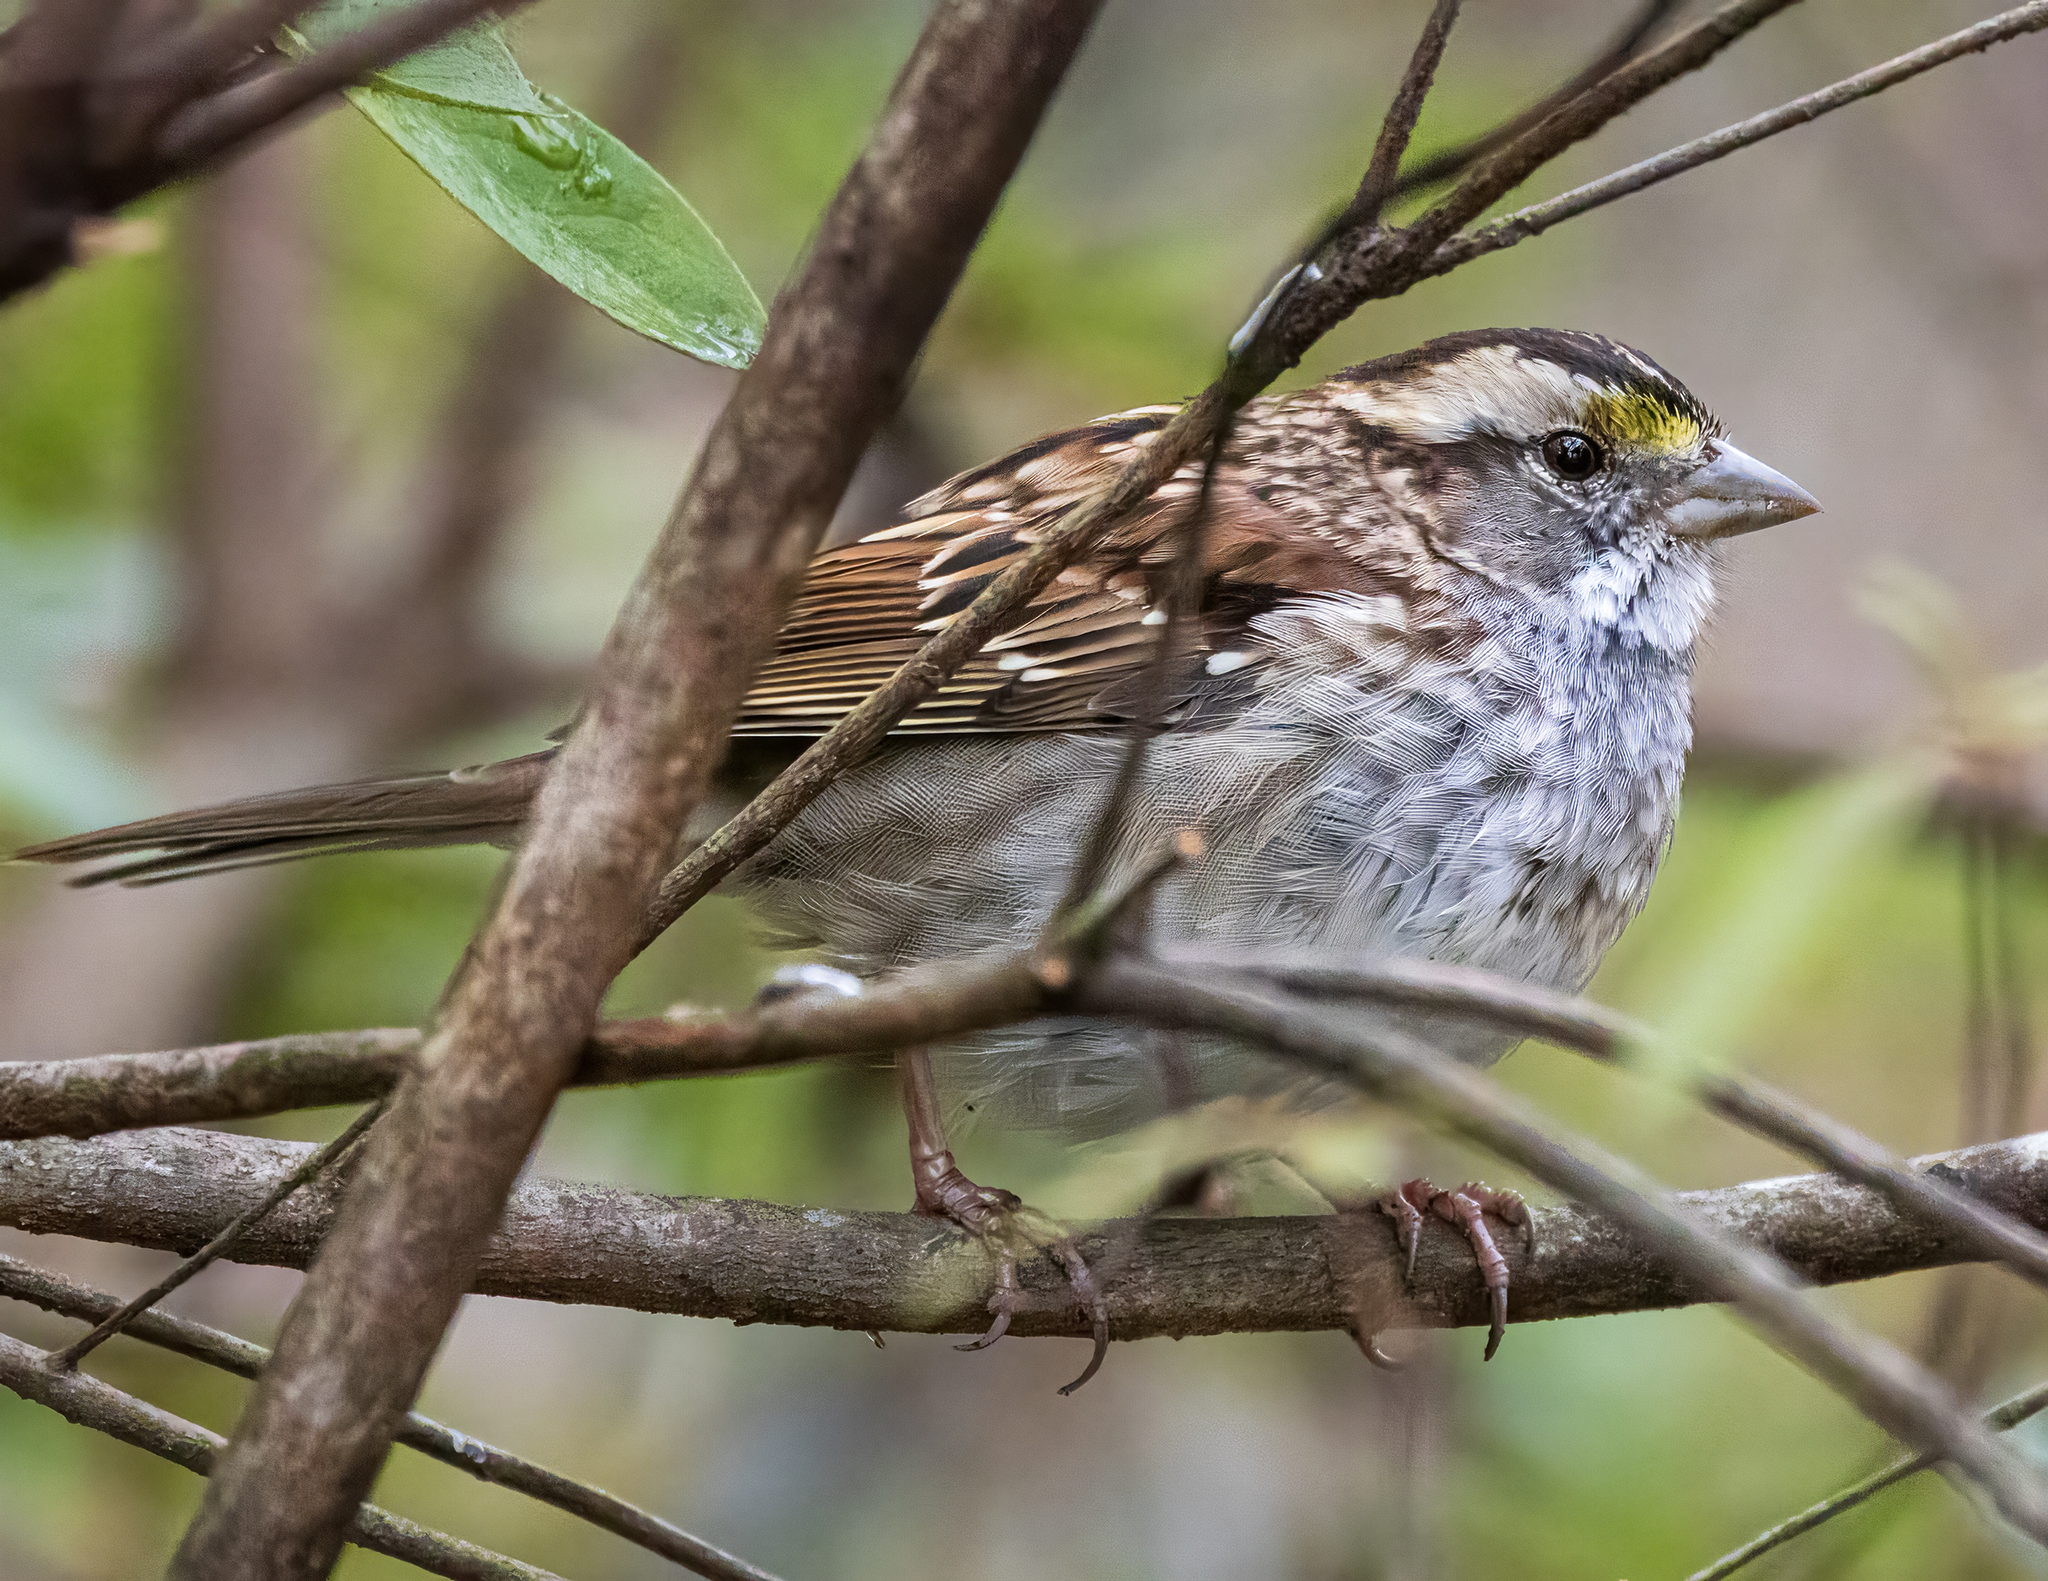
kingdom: Animalia
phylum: Chordata
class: Aves
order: Passeriformes
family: Passerellidae
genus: Zonotrichia
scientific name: Zonotrichia albicollis
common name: White-throated sparrow
